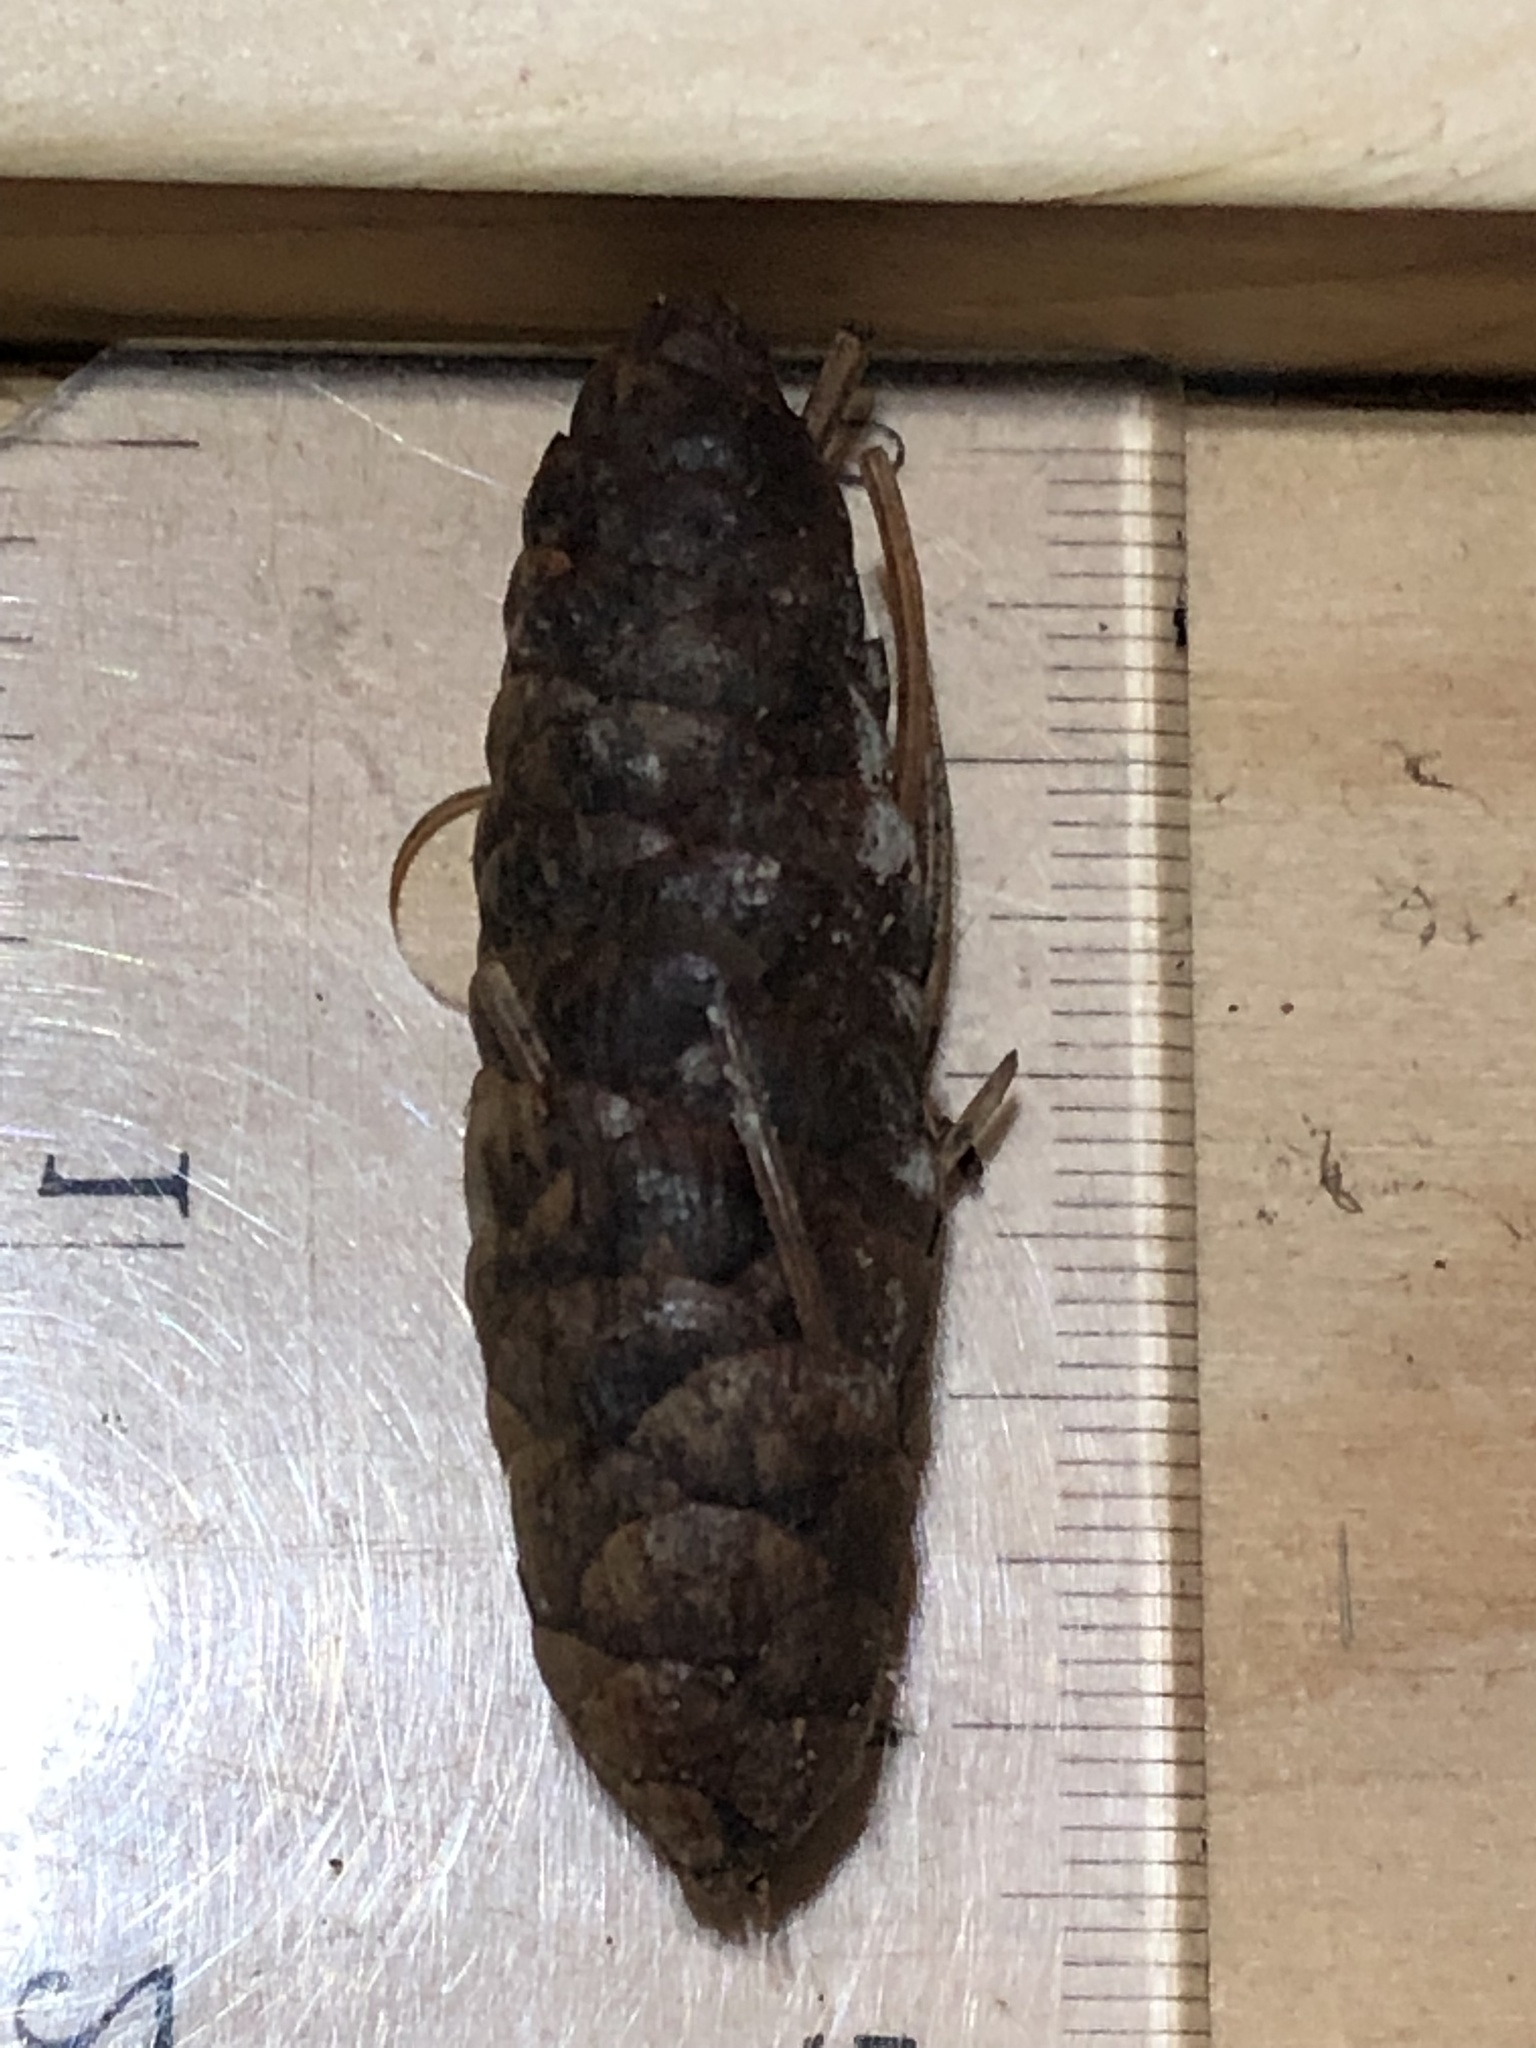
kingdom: Plantae
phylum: Tracheophyta
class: Pinopsida
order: Pinales
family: Pinaceae
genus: Picea
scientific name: Picea glauca
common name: White spruce
